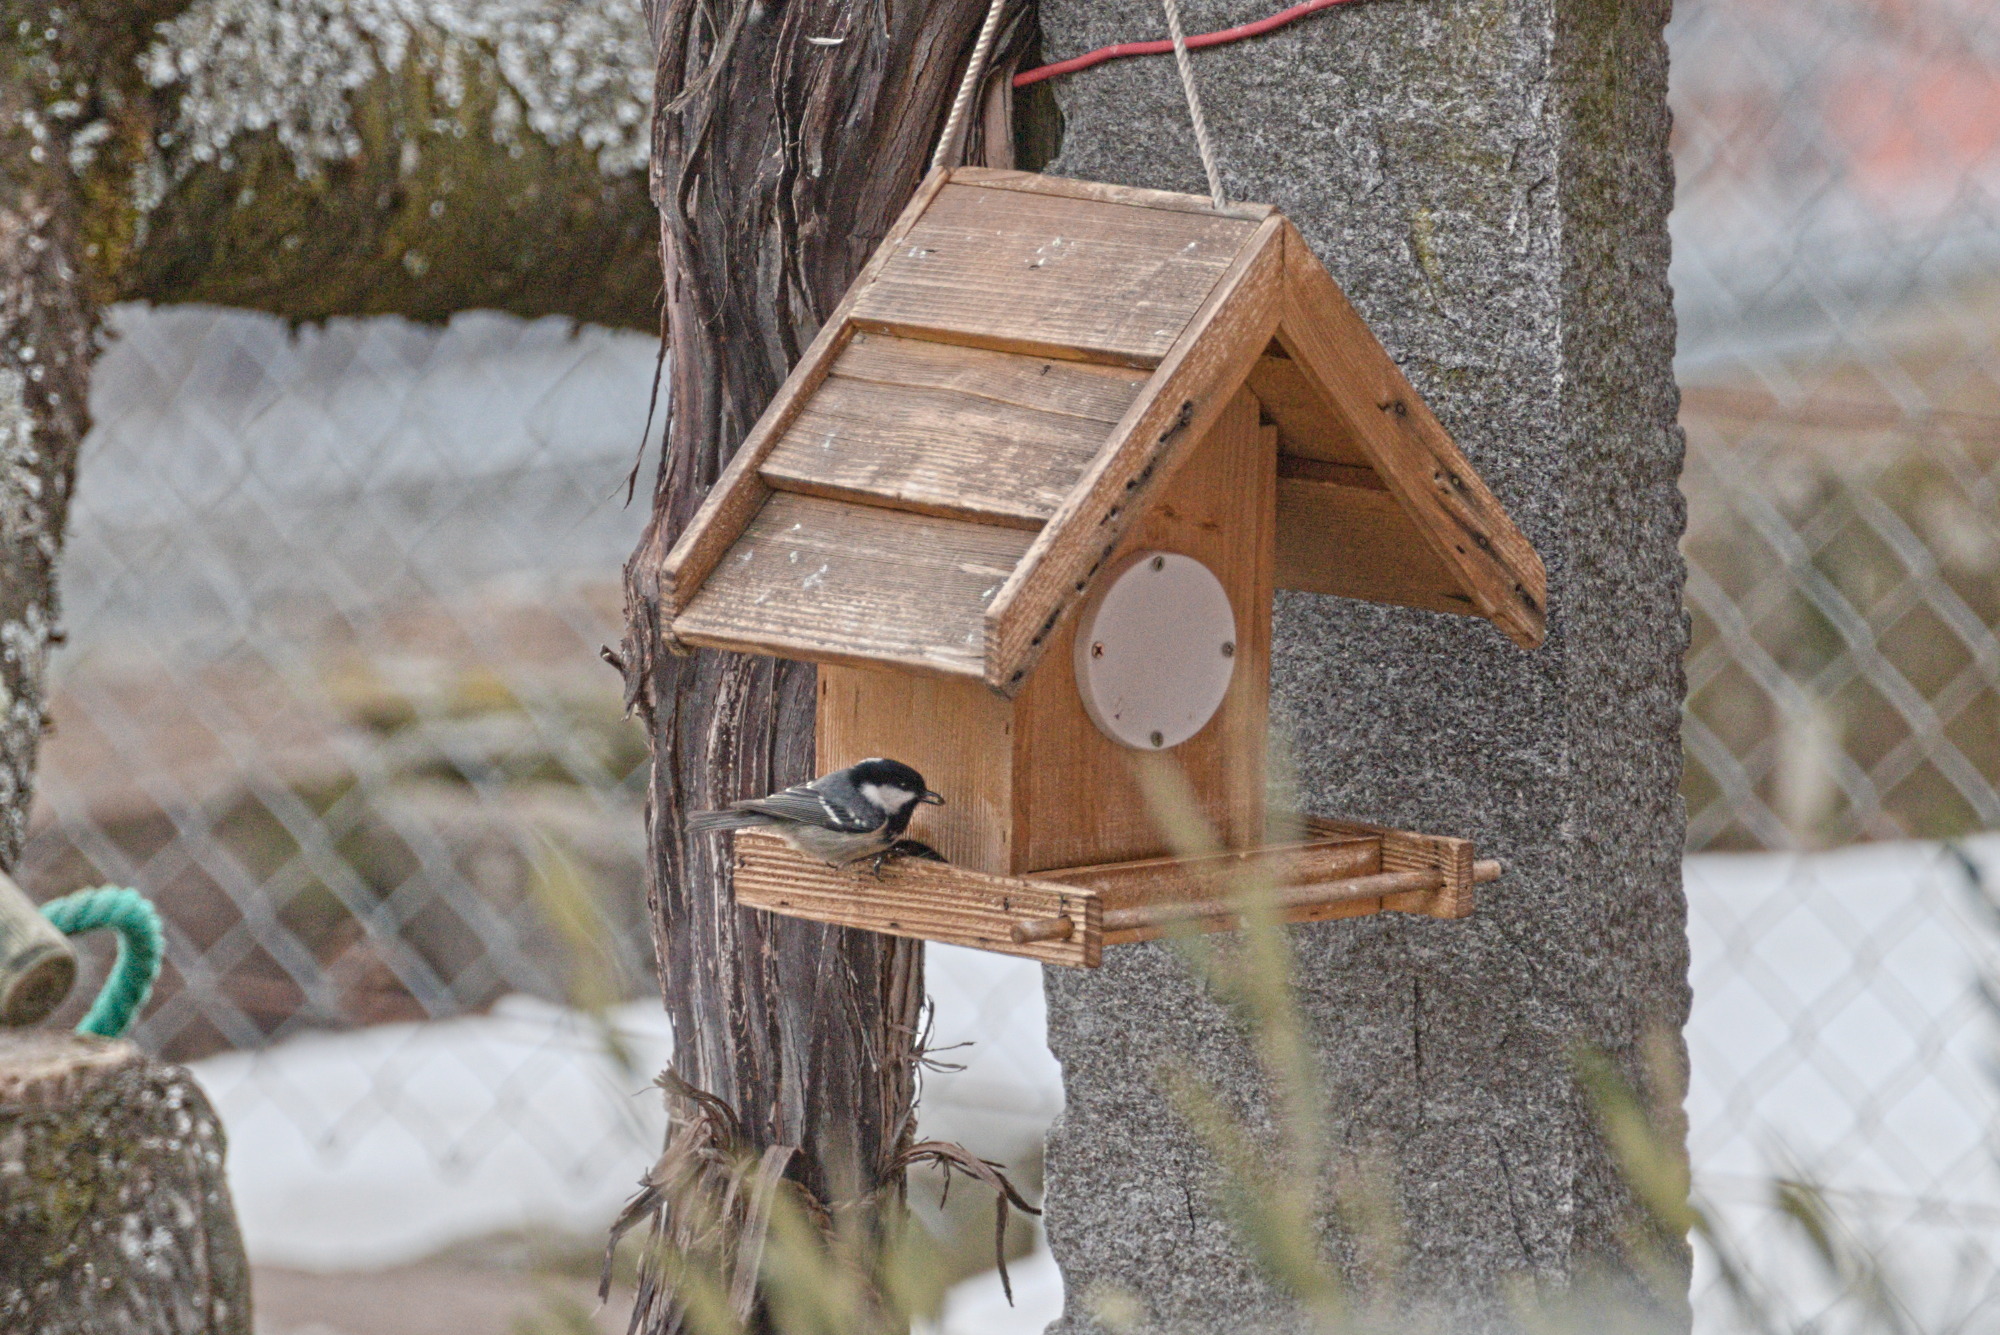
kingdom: Animalia
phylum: Chordata
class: Aves
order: Passeriformes
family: Paridae
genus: Periparus
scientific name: Periparus ater
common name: Coal tit
